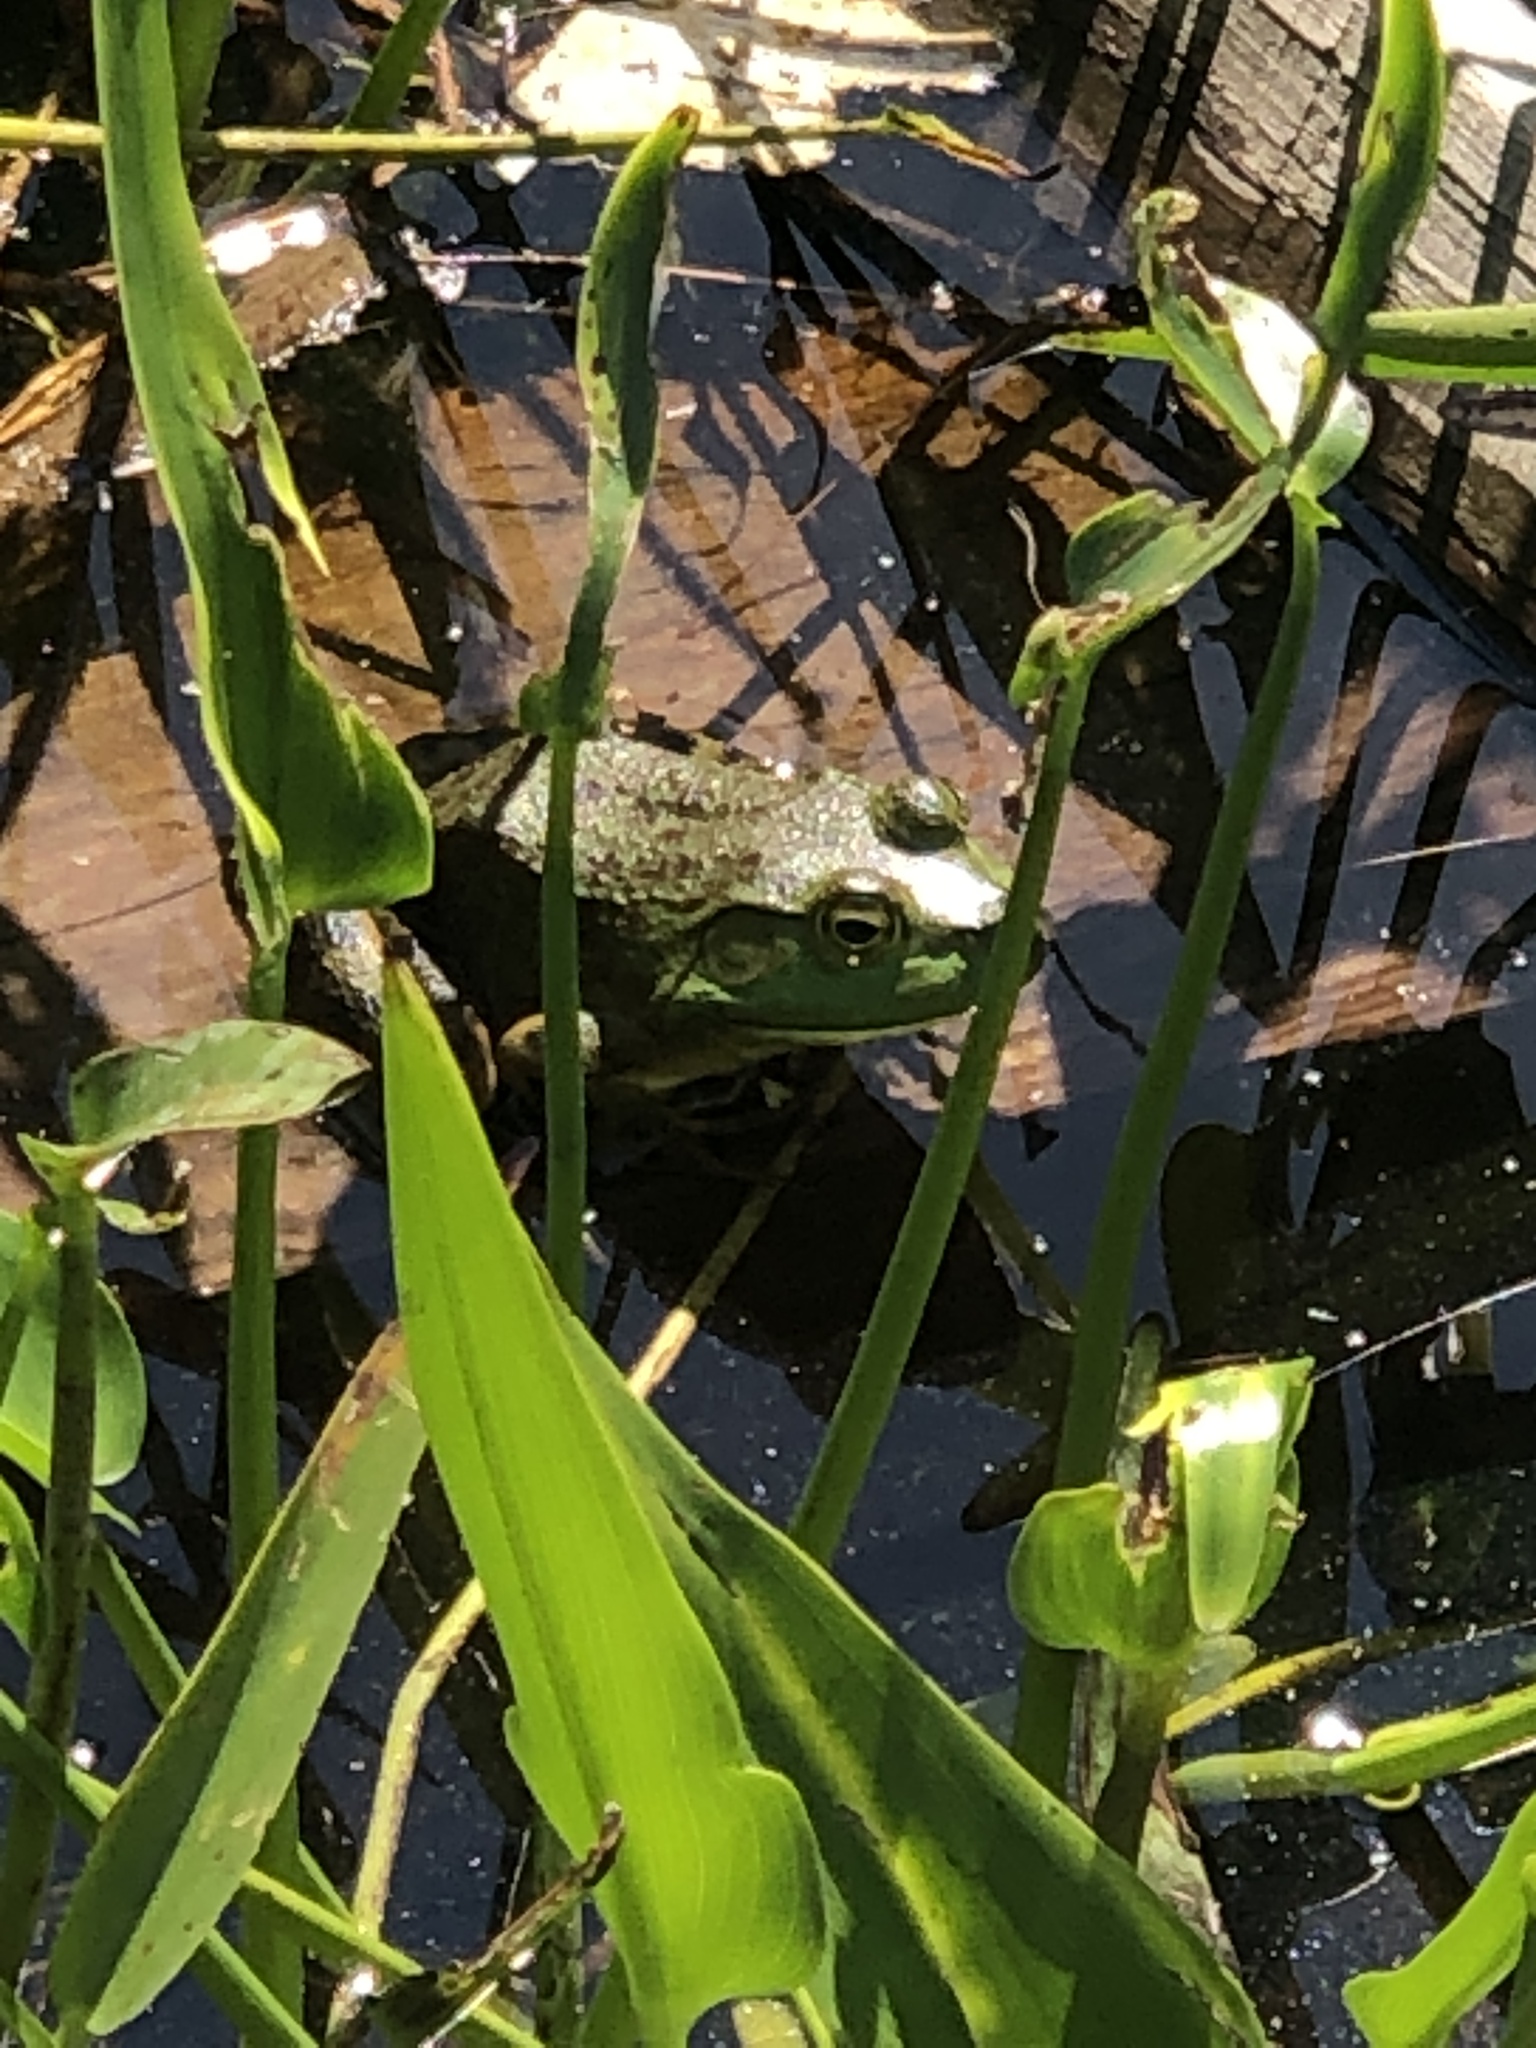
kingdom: Animalia
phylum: Chordata
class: Amphibia
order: Anura
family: Ranidae
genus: Lithobates
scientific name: Lithobates catesbeianus
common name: American bullfrog
